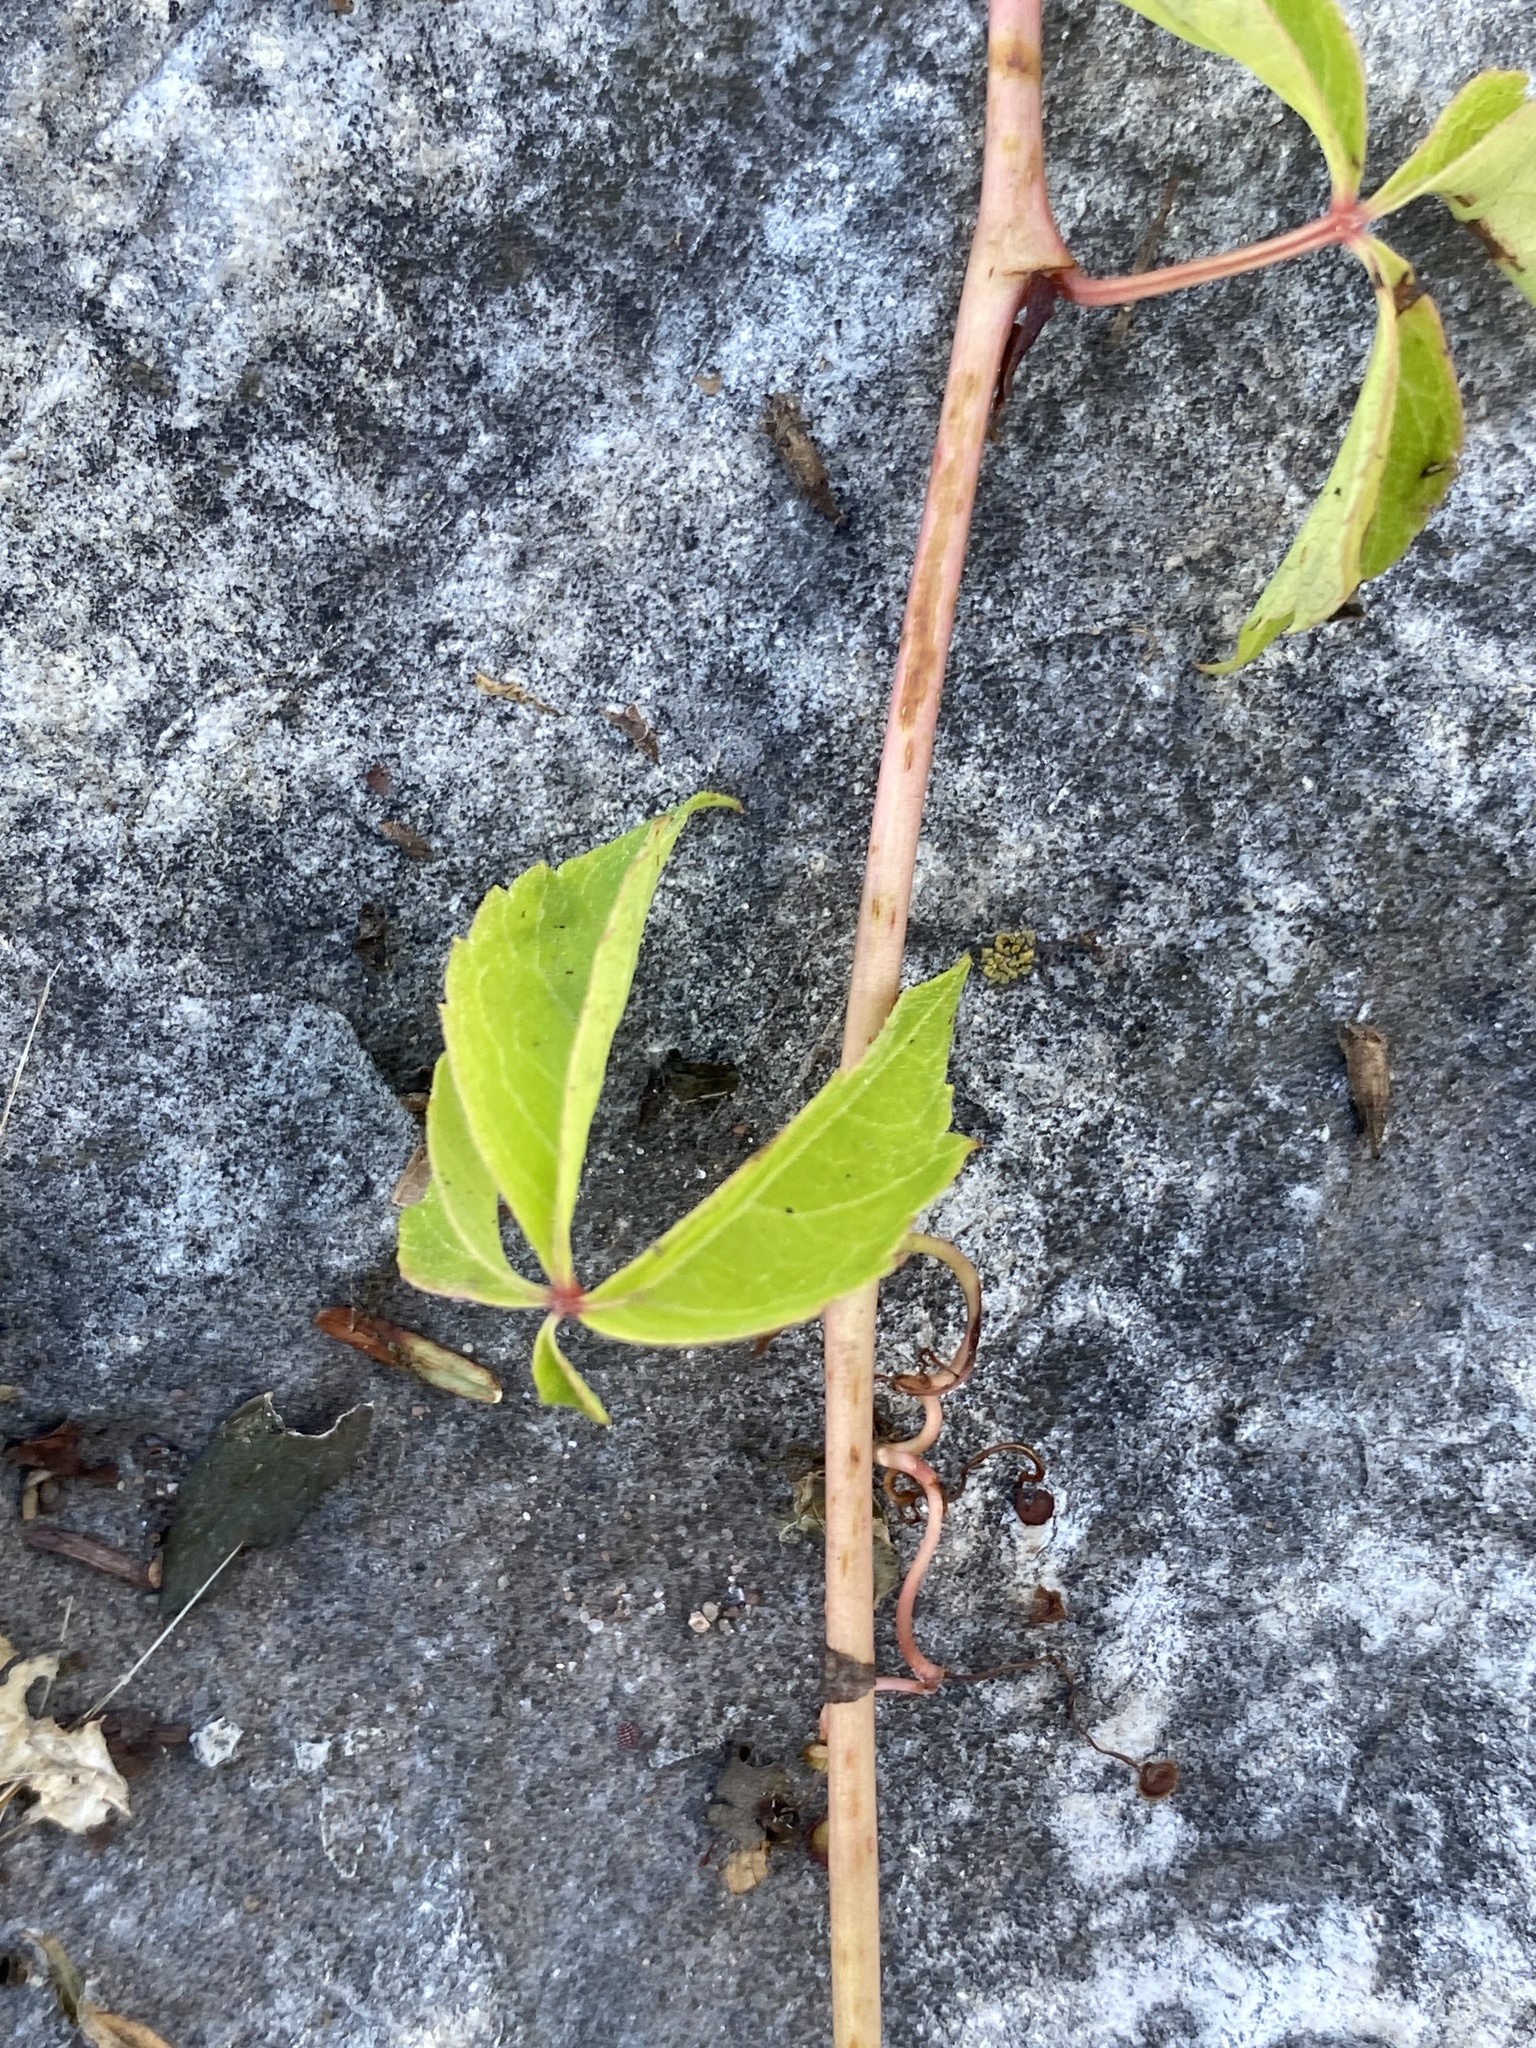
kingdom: Plantae
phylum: Tracheophyta
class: Magnoliopsida
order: Vitales
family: Vitaceae
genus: Parthenocissus
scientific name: Parthenocissus quinquefolia
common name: Virginia-creeper
